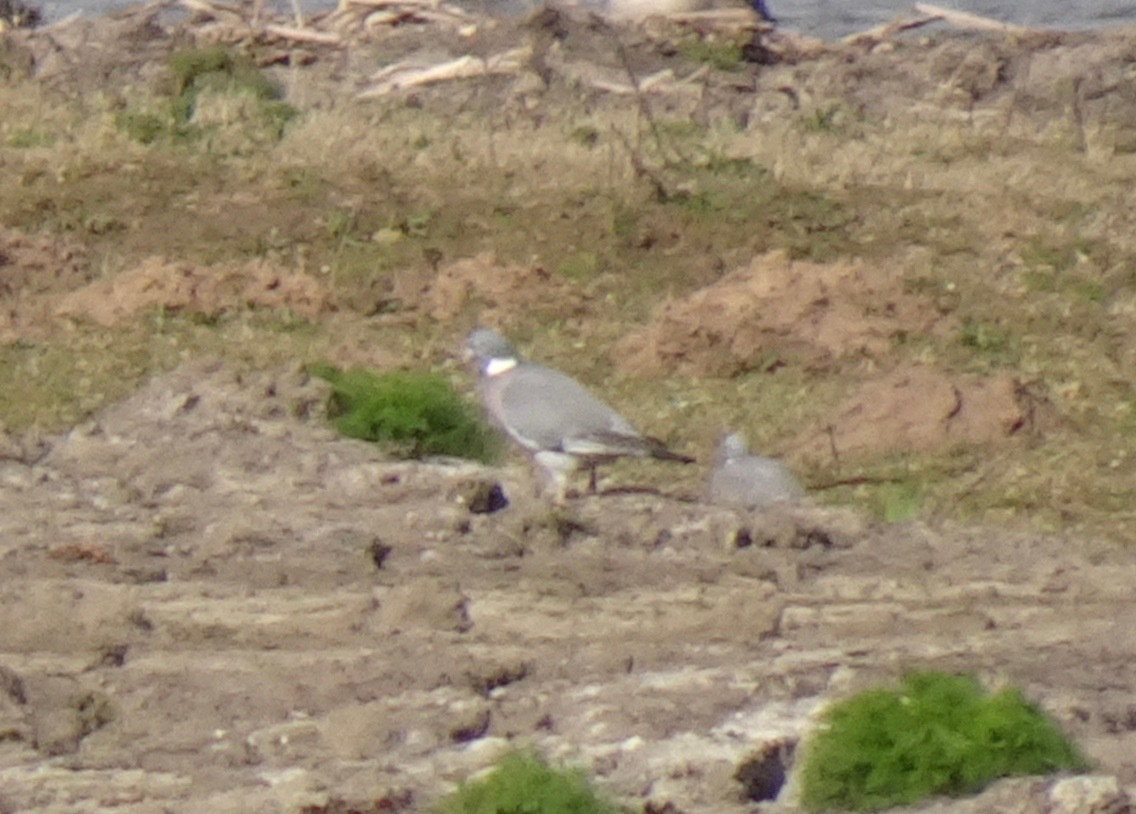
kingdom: Animalia
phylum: Chordata
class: Aves
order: Columbiformes
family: Columbidae
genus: Columba
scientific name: Columba palumbus
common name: Common wood pigeon
